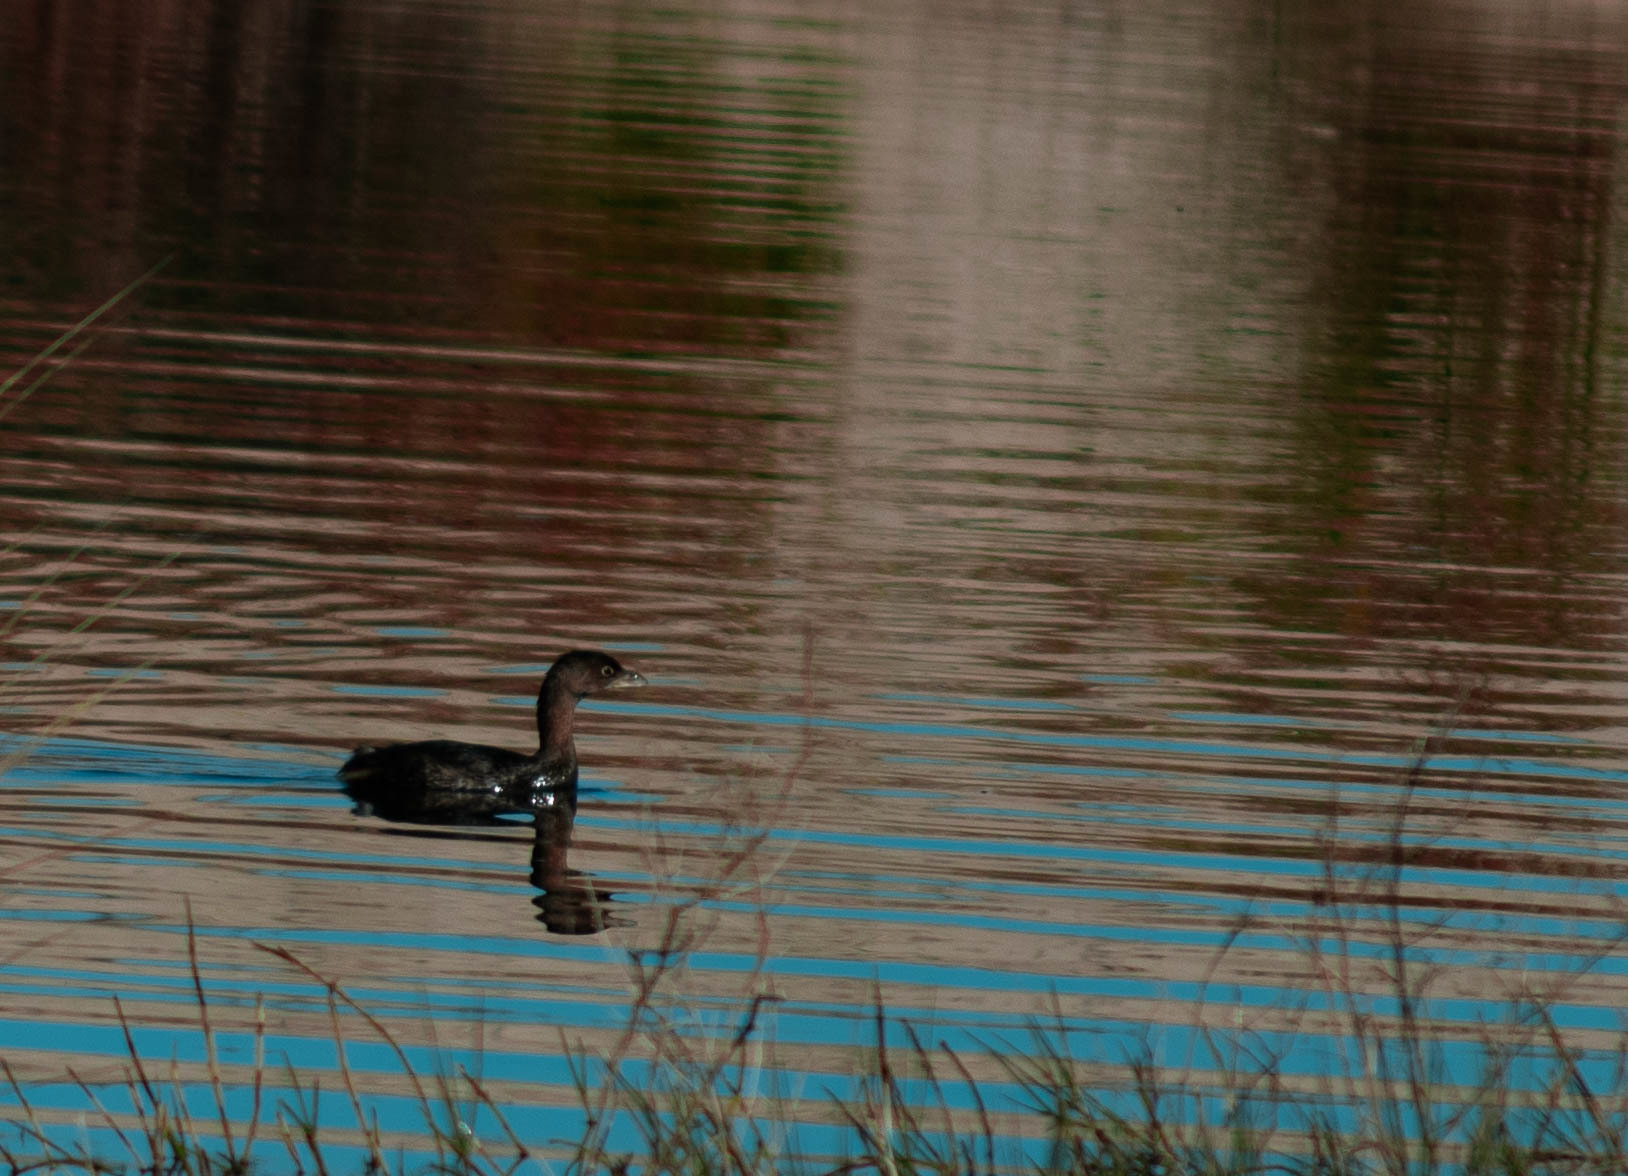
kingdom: Animalia
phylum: Chordata
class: Aves
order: Podicipediformes
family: Podicipedidae
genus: Podilymbus
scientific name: Podilymbus podiceps
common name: Pied-billed grebe
